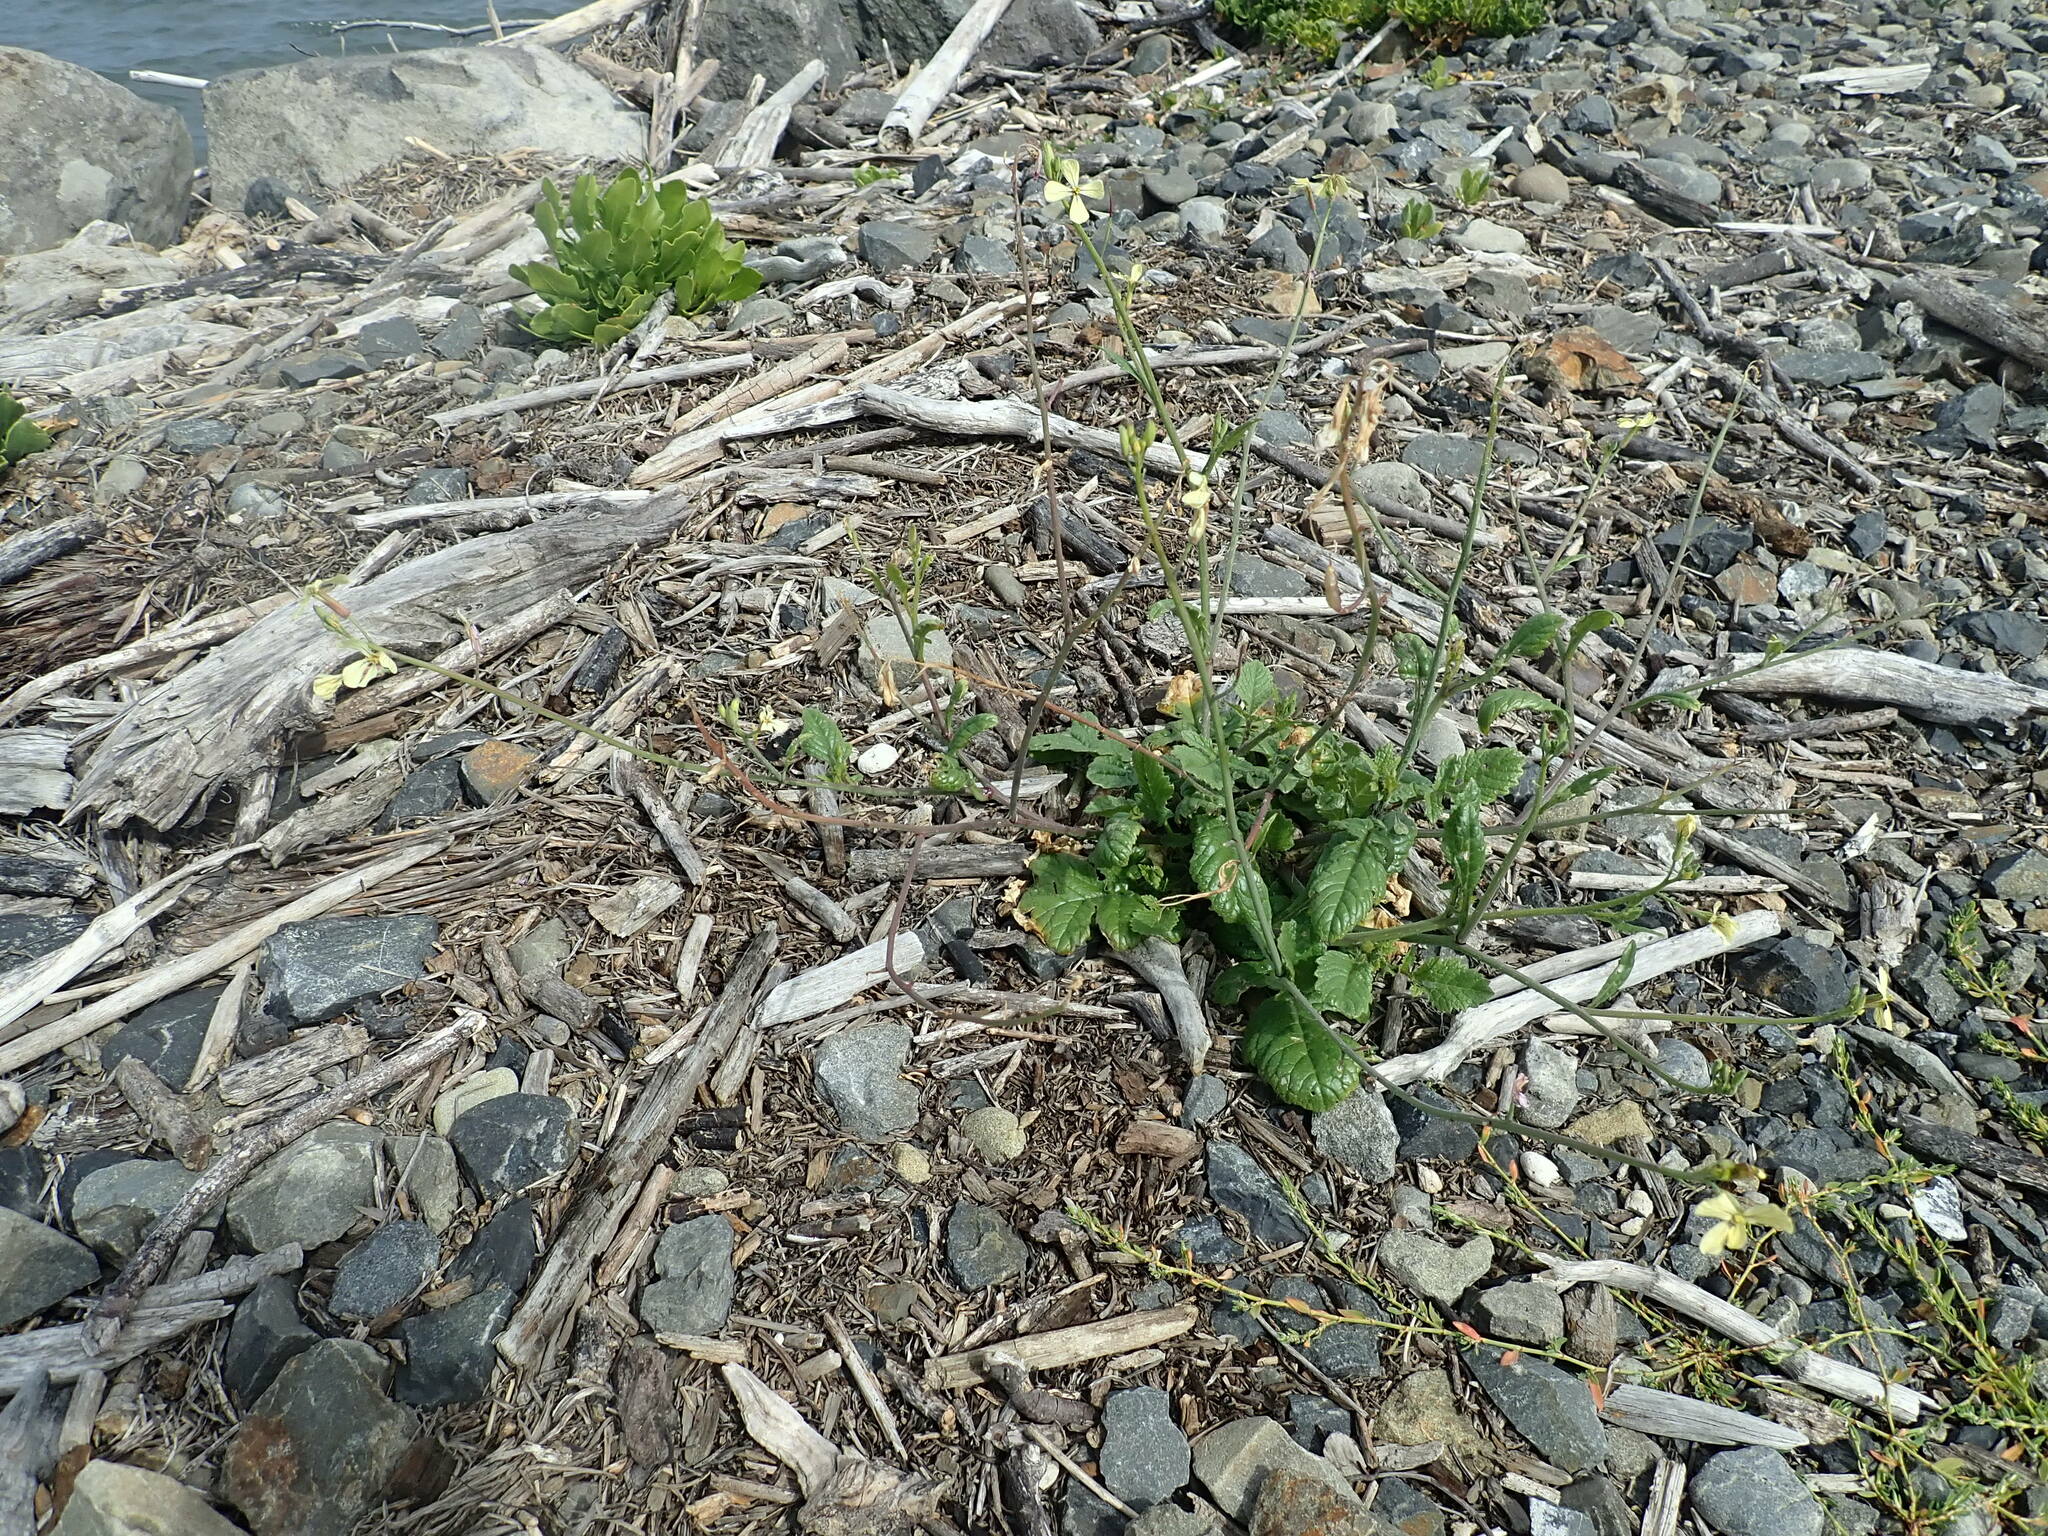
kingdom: Plantae
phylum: Tracheophyta
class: Magnoliopsida
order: Brassicales
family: Brassicaceae
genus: Raphanus
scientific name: Raphanus raphanistrum
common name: Wild radish
